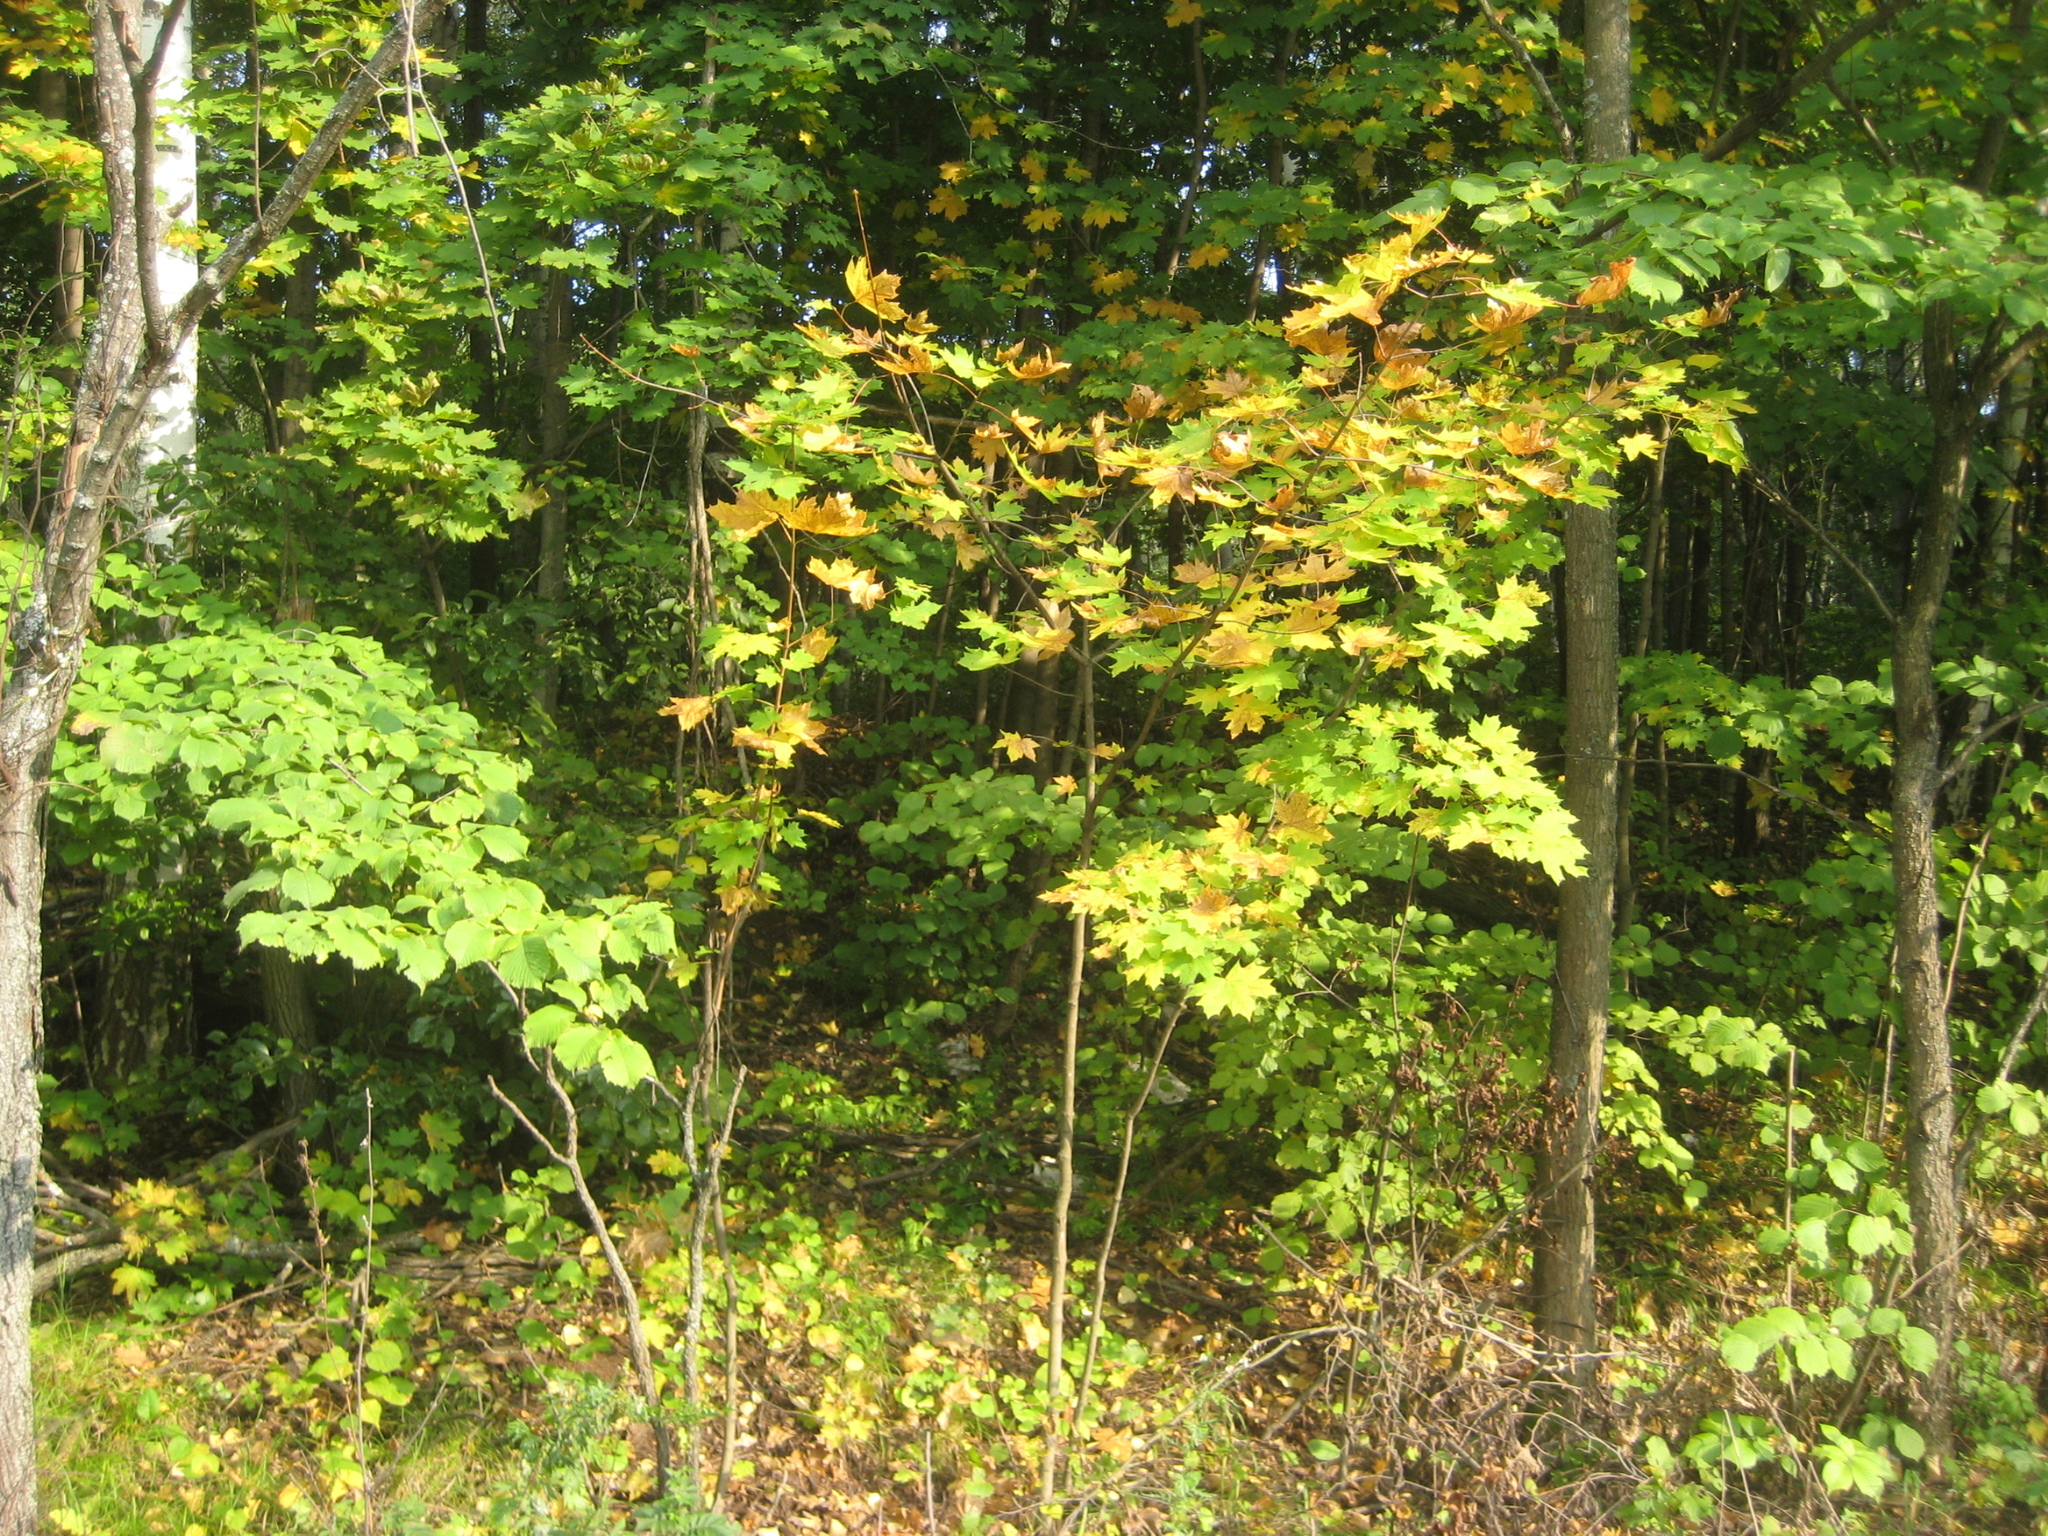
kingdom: Plantae
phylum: Tracheophyta
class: Magnoliopsida
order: Sapindales
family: Sapindaceae
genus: Acer
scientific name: Acer platanoides
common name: Norway maple
